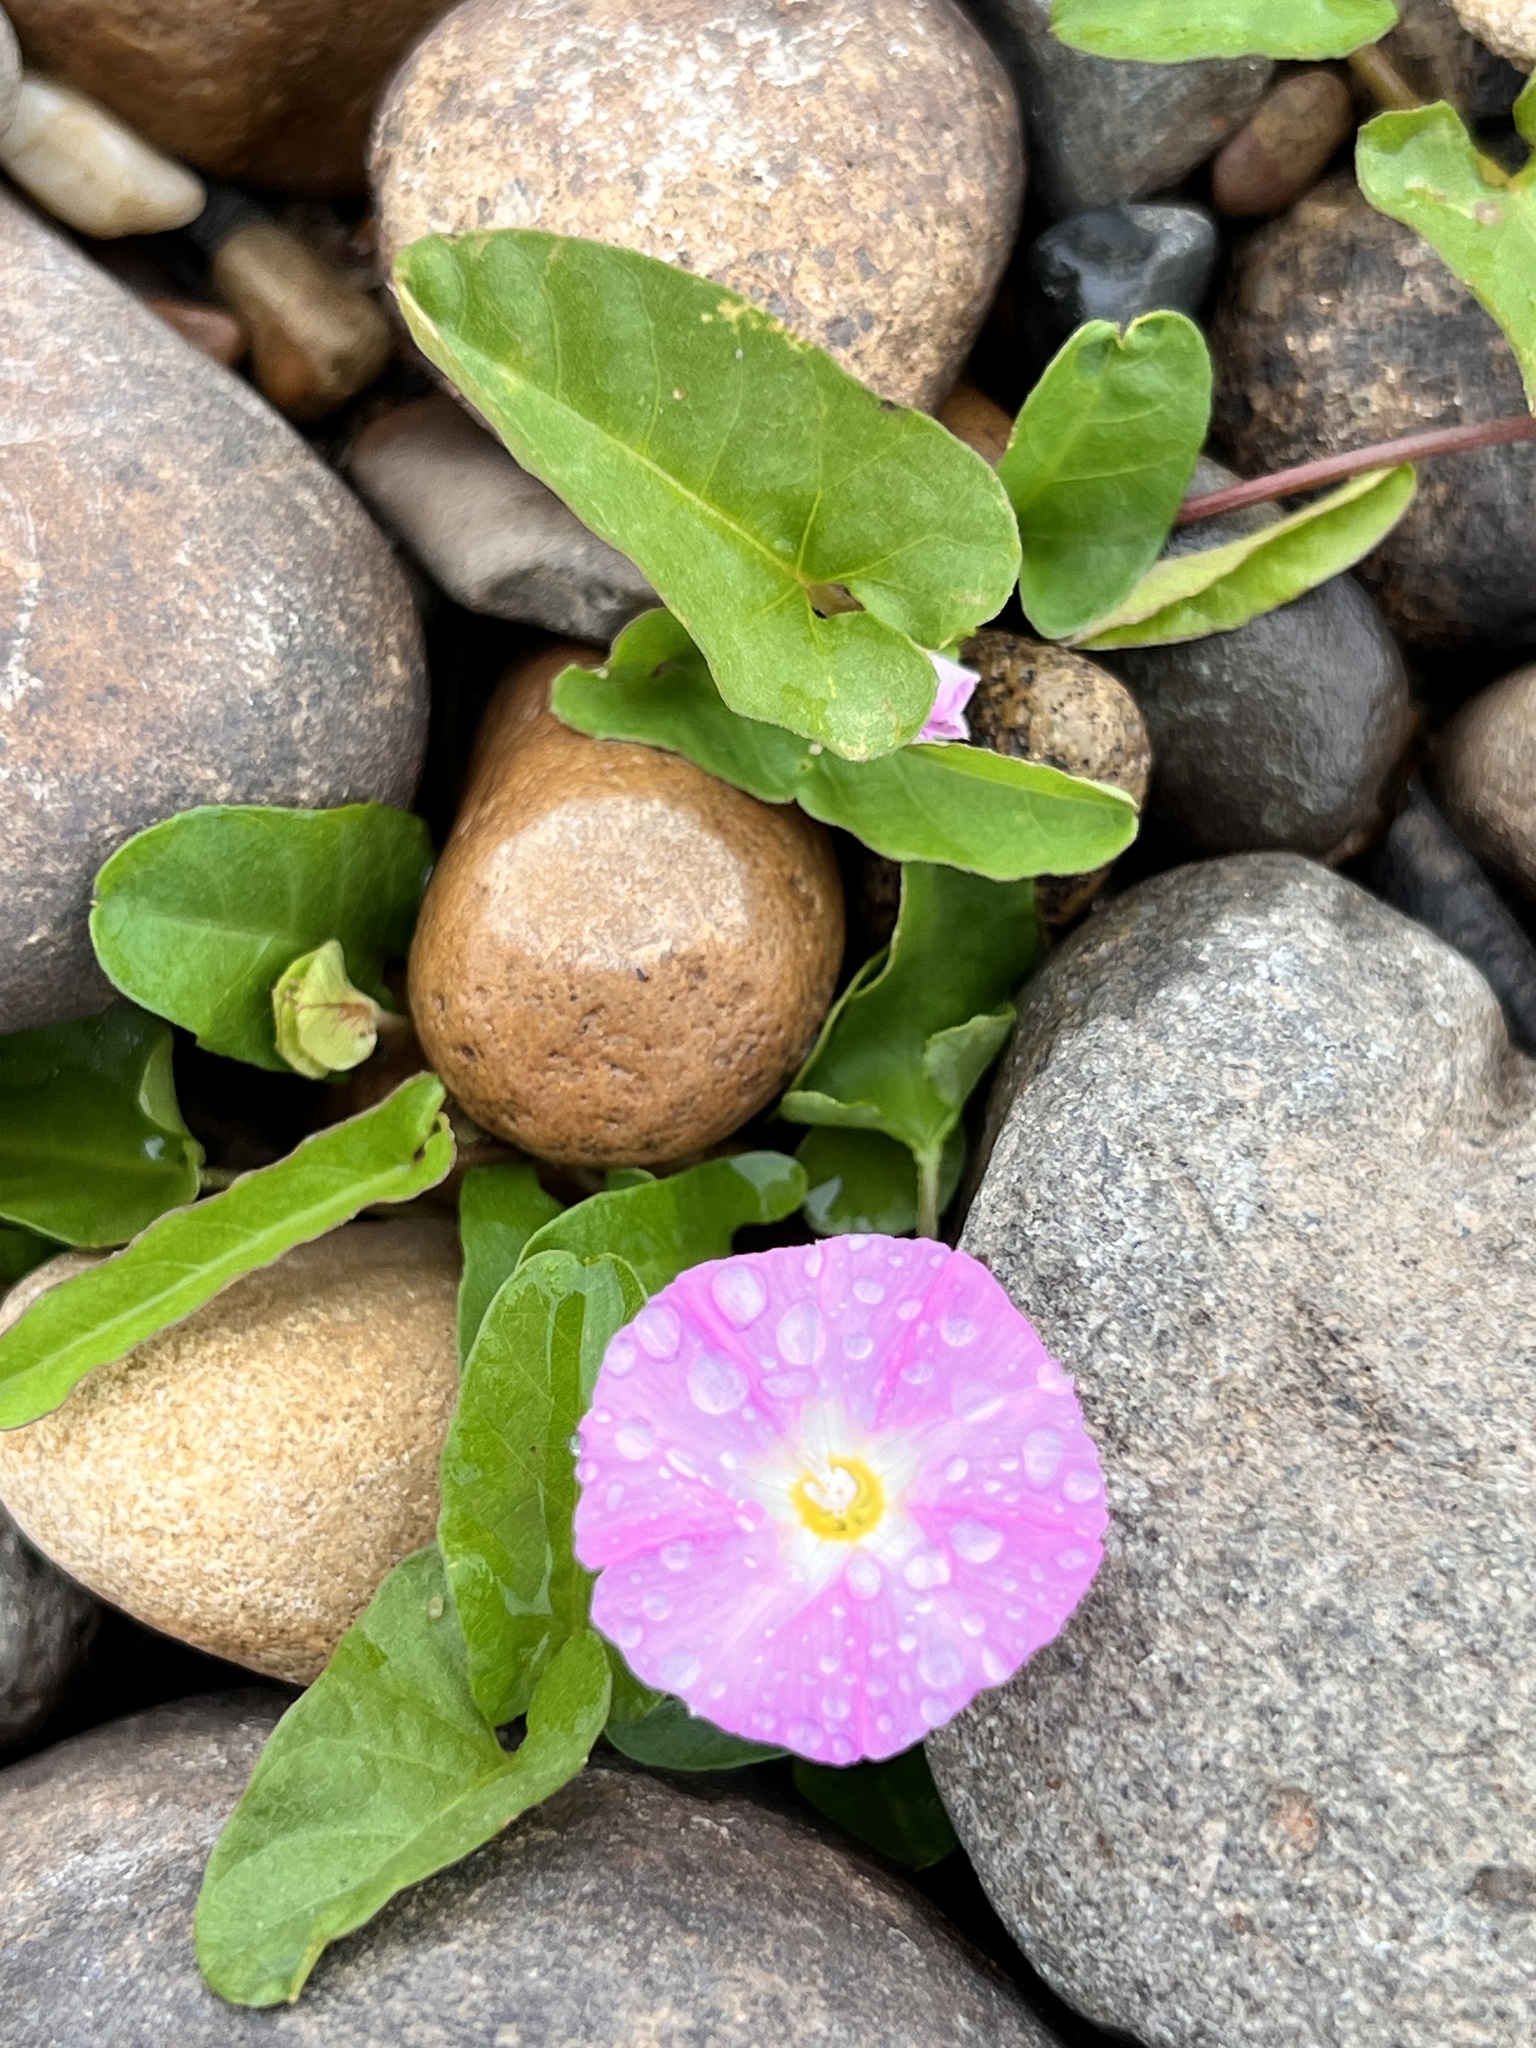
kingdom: Plantae
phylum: Tracheophyta
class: Magnoliopsida
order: Solanales
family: Convolvulaceae
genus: Polymeria
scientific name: Polymeria calycina
